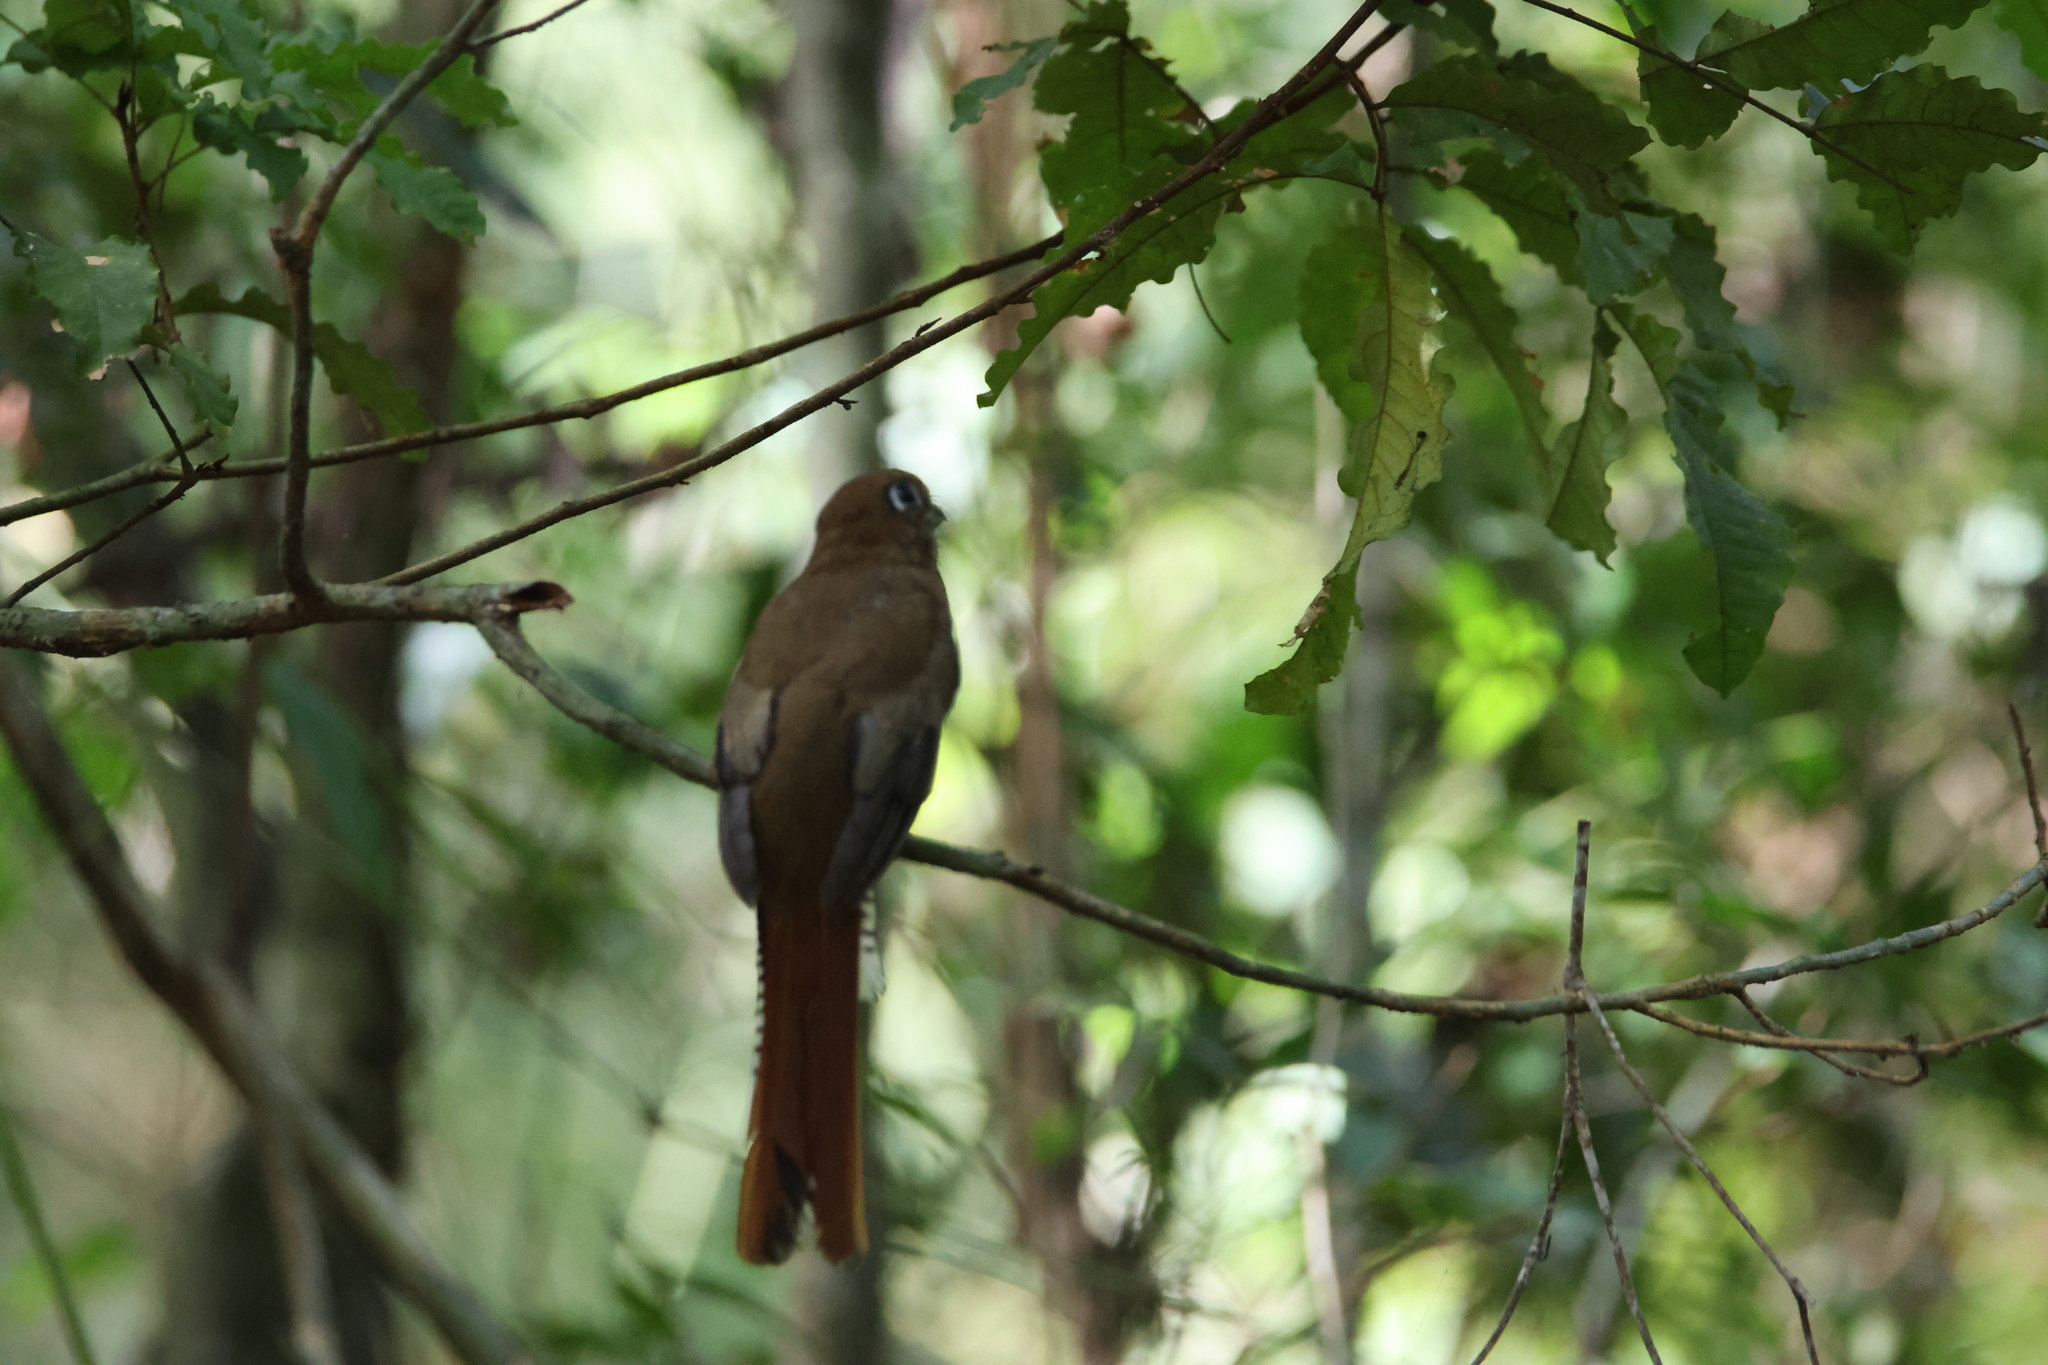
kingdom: Animalia
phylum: Chordata
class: Aves
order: Trogoniformes
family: Trogonidae
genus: Trogon
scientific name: Trogon rufus
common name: Black-throated trogon
